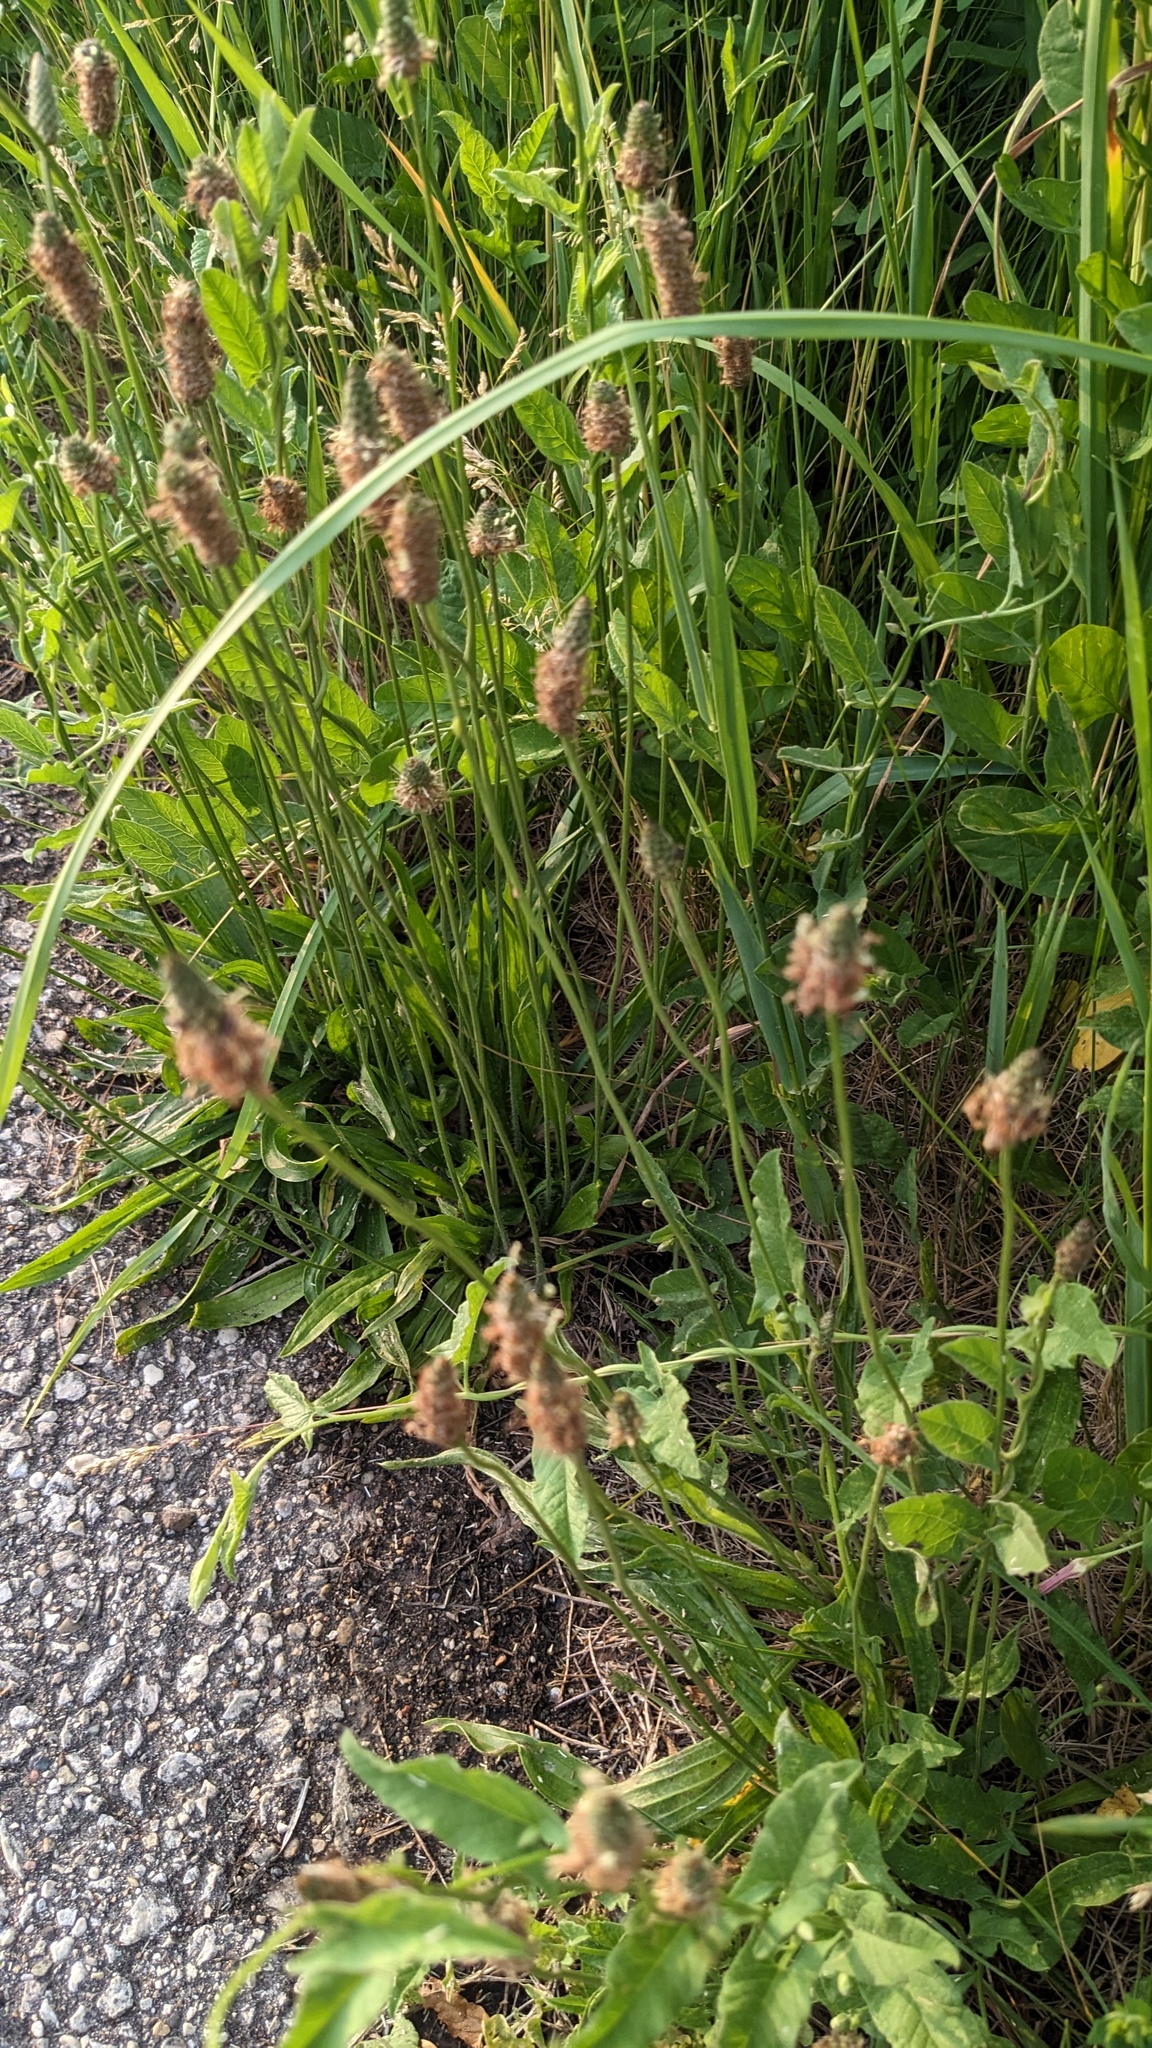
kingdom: Plantae
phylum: Tracheophyta
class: Magnoliopsida
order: Lamiales
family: Plantaginaceae
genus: Plantago
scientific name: Plantago lanceolata
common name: Ribwort plantain
